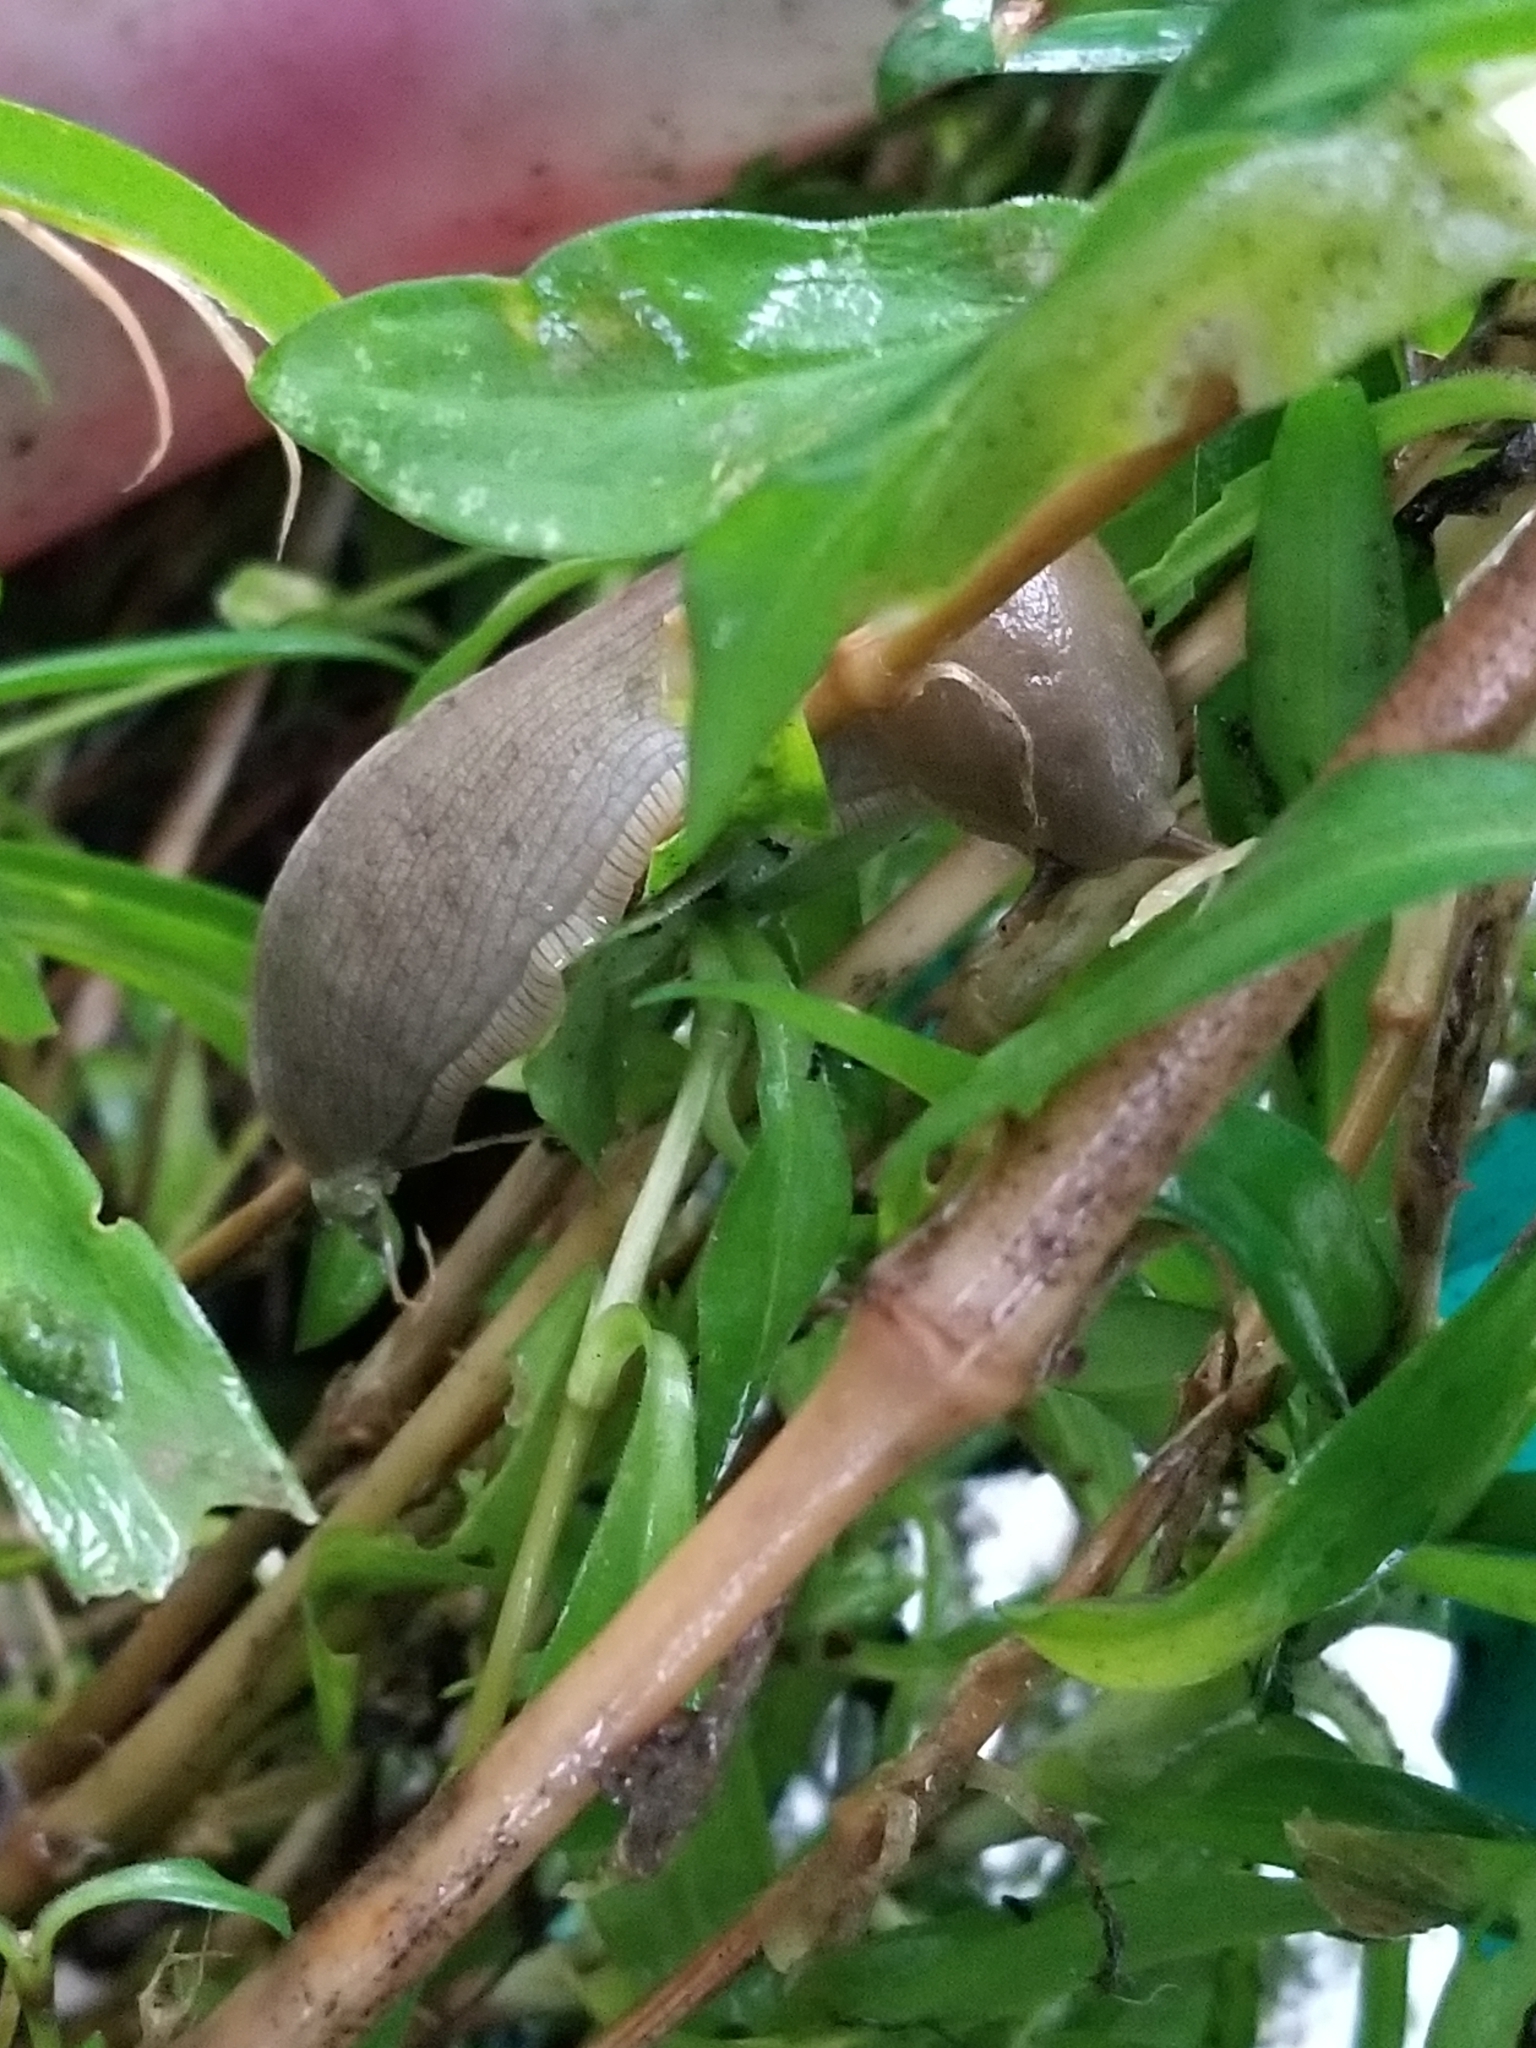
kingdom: Animalia
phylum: Mollusca
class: Gastropoda
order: Stylommatophora
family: Ariolimacidae
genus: Ariolimax
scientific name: Ariolimax columbianus
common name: Pacific banana slug
